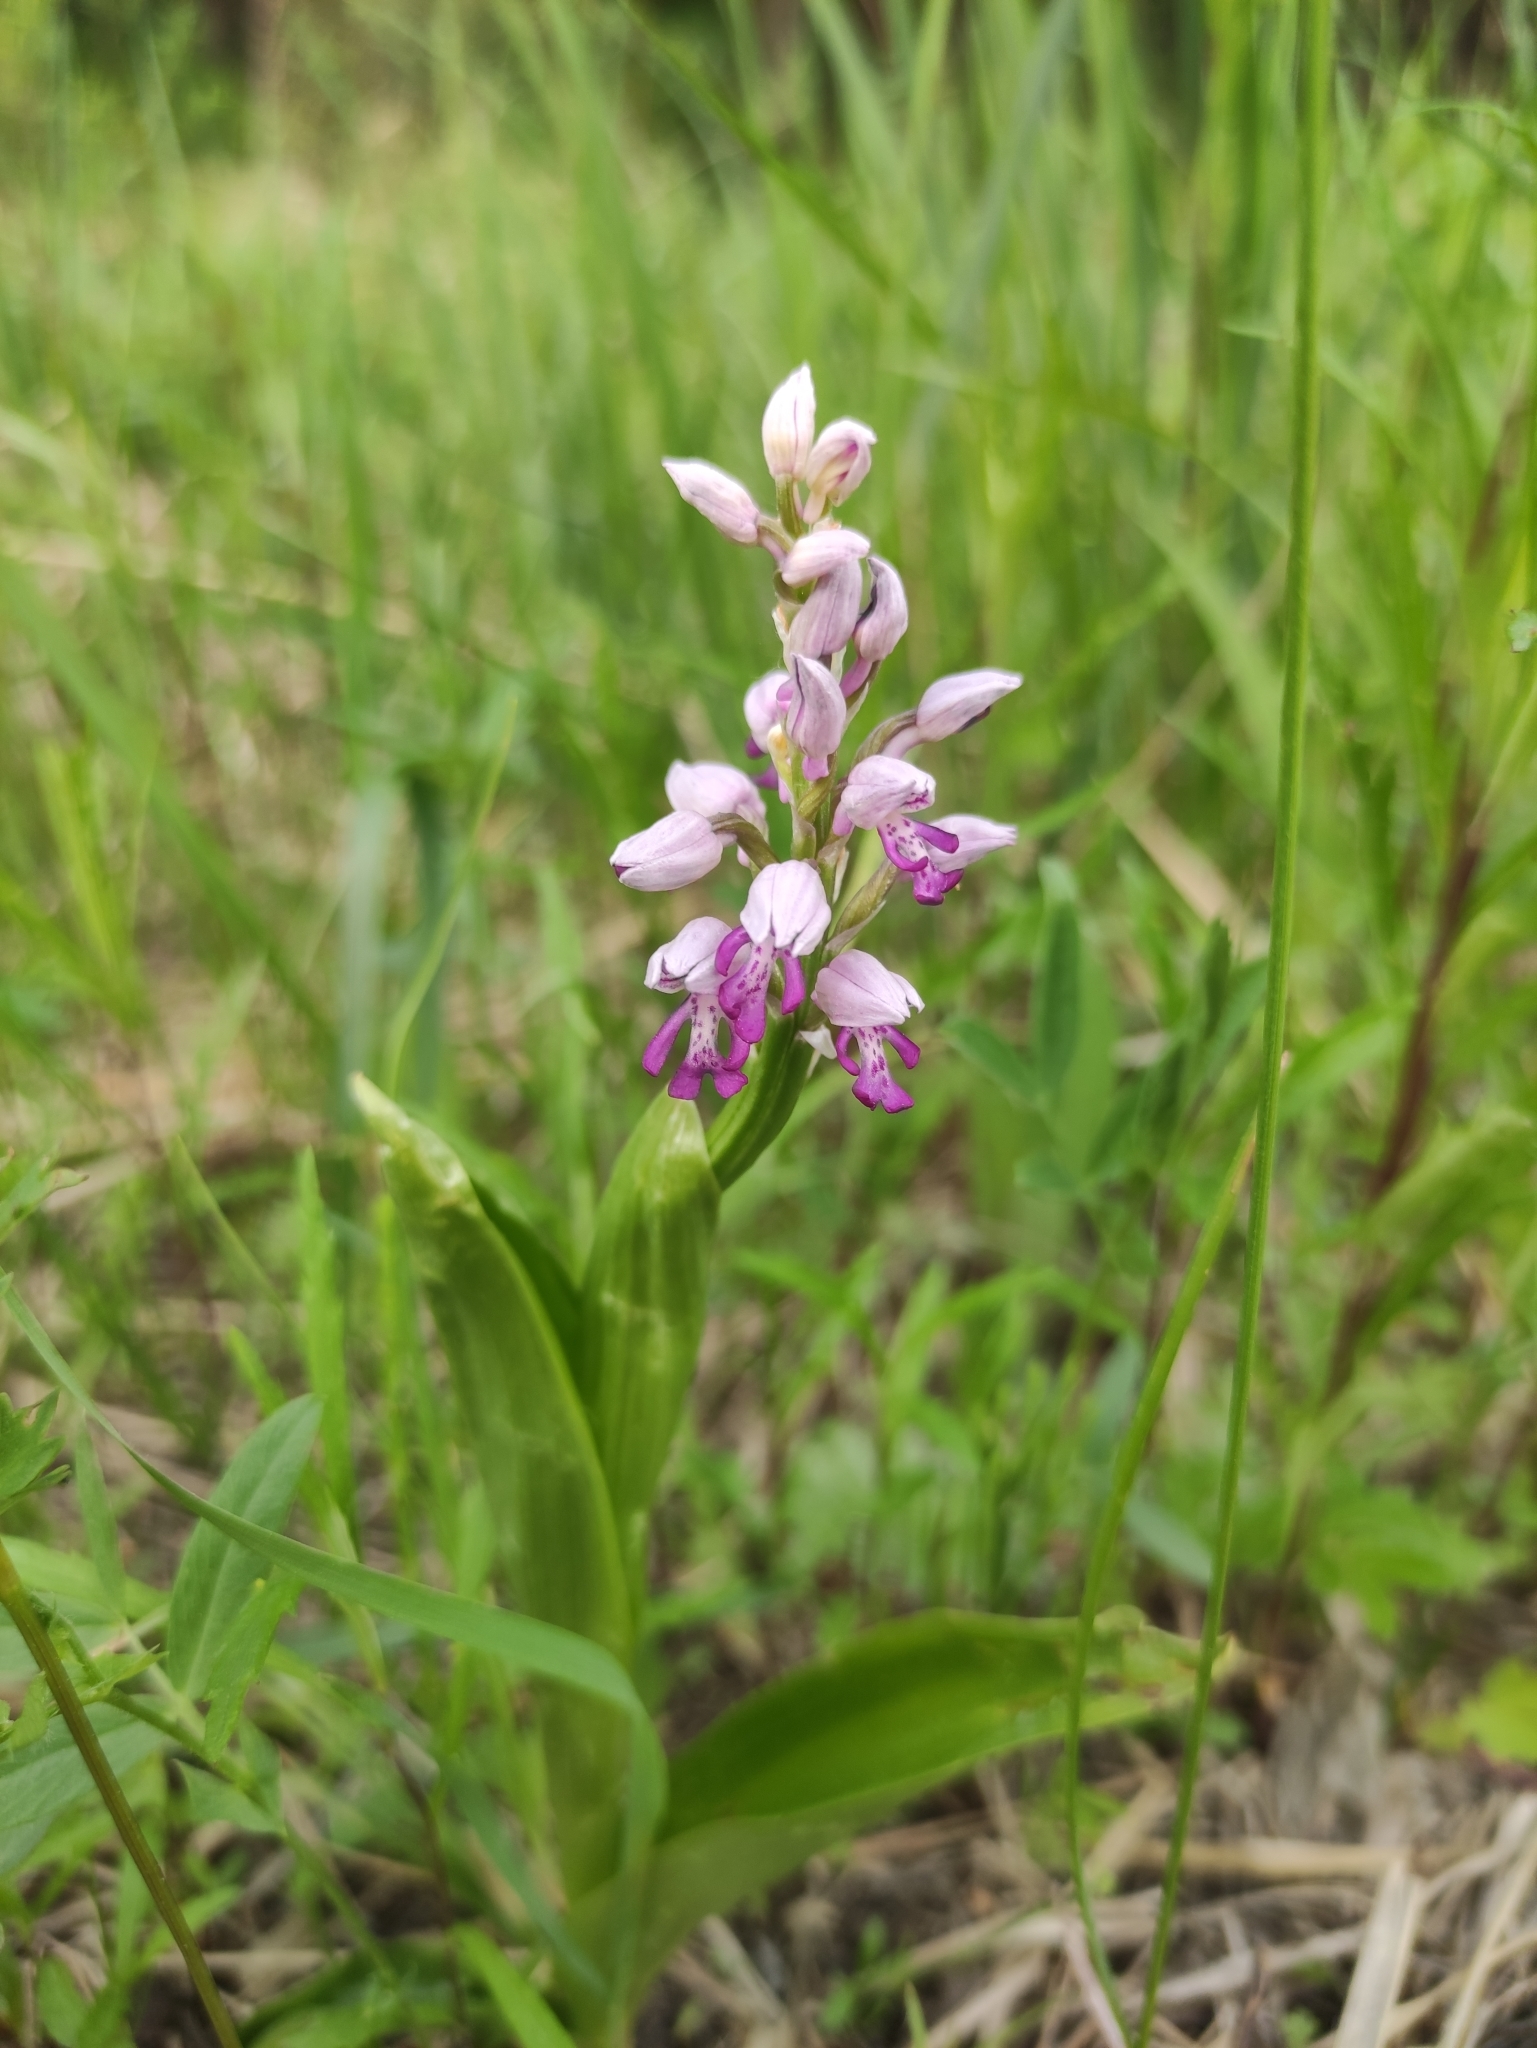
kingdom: Plantae
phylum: Tracheophyta
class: Liliopsida
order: Asparagales
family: Orchidaceae
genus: Orchis
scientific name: Orchis militaris
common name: Military orchid
